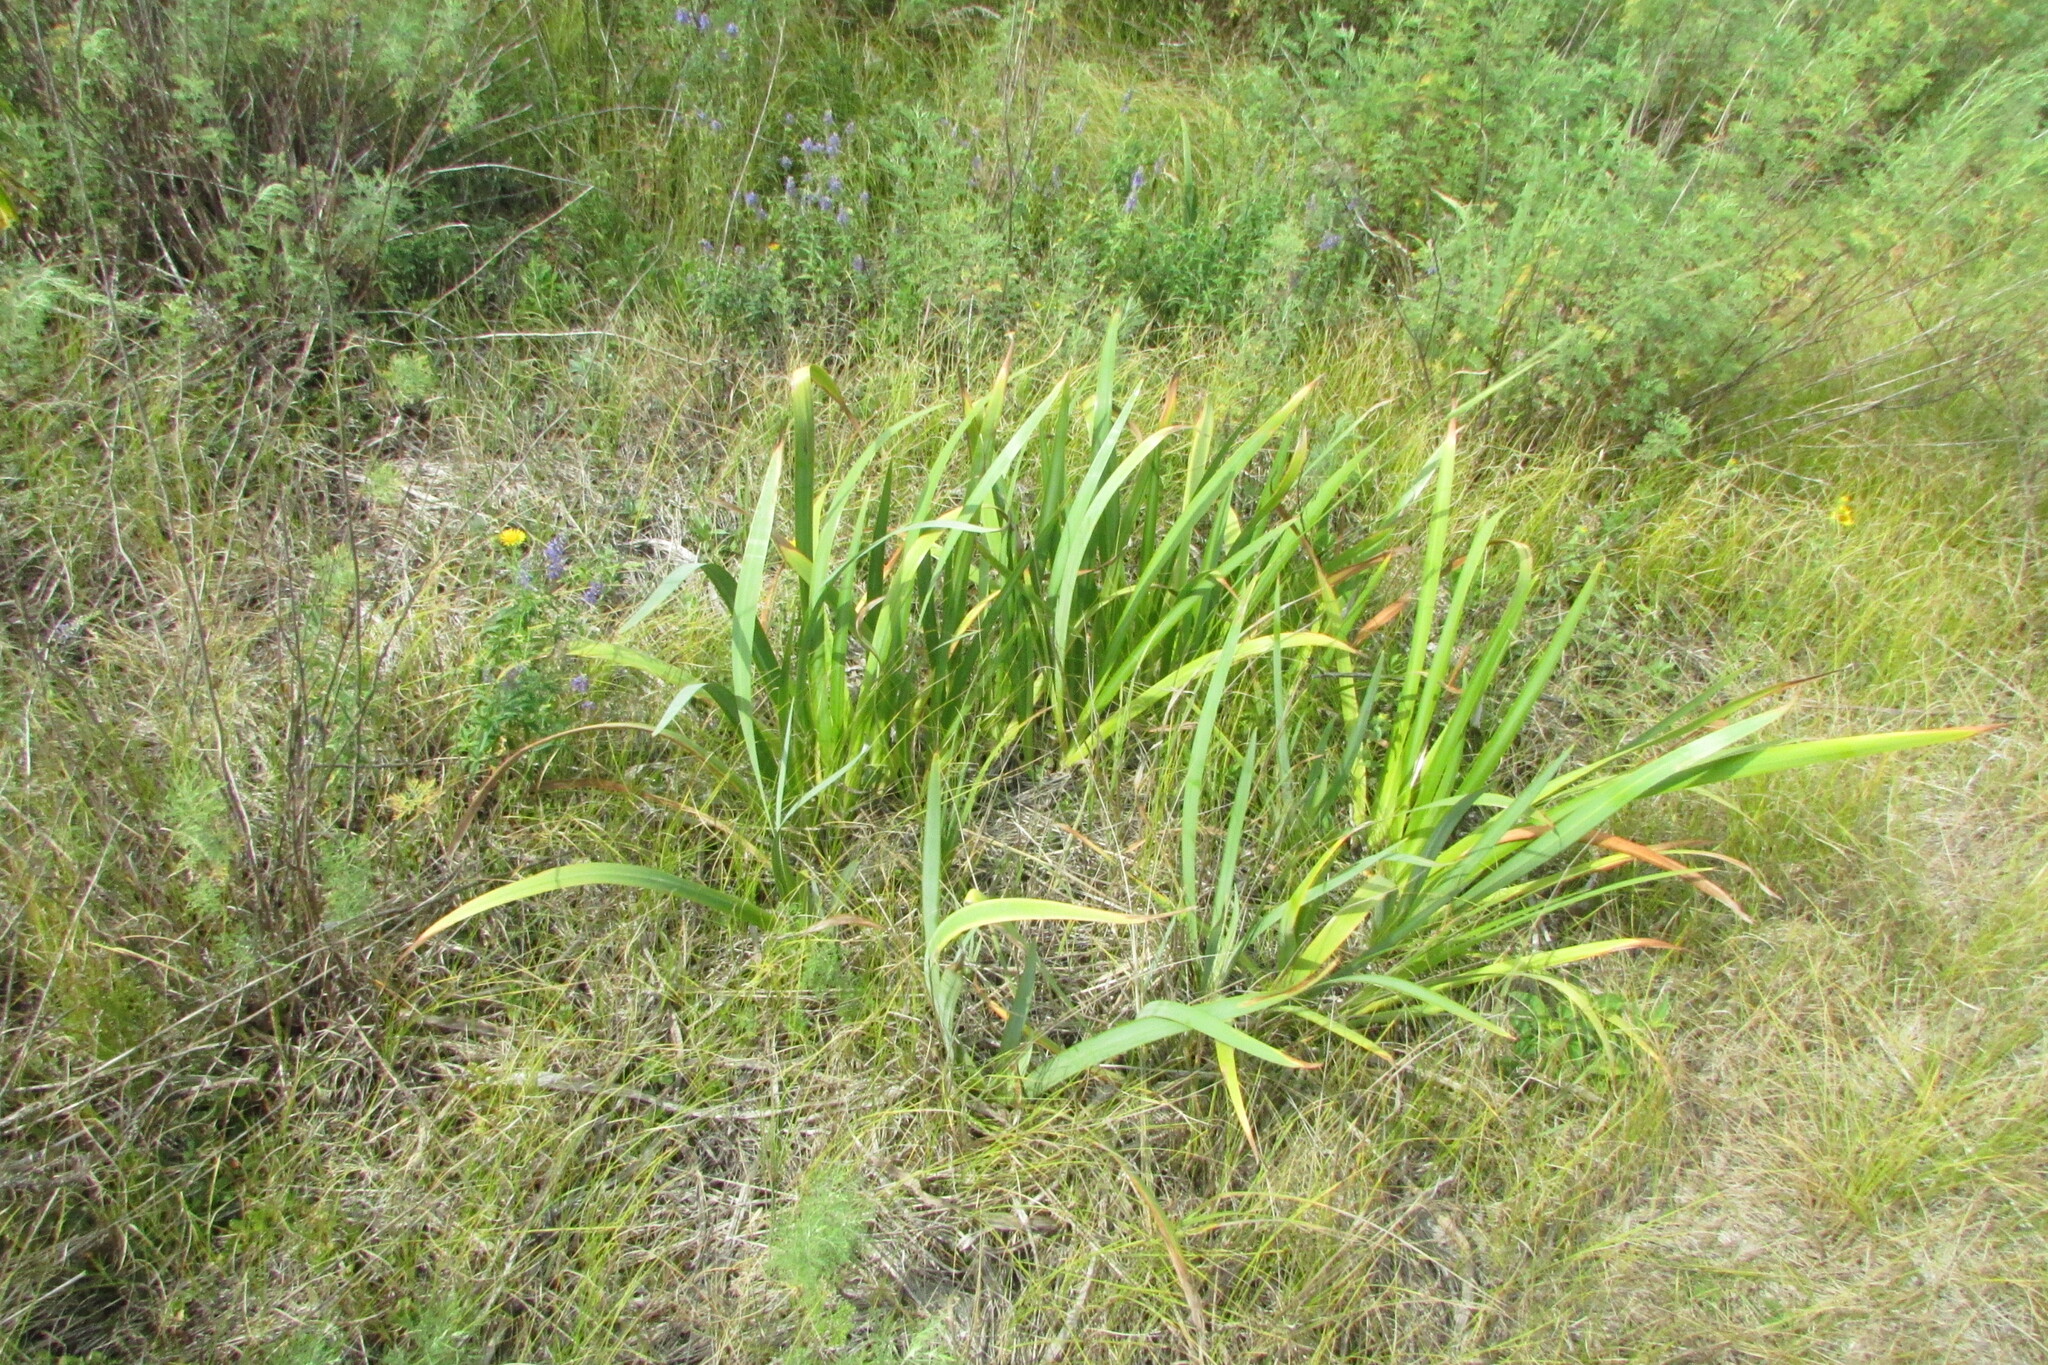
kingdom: Plantae
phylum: Tracheophyta
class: Liliopsida
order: Asparagales
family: Iridaceae
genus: Iris
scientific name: Iris pseudacorus
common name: Yellow flag
